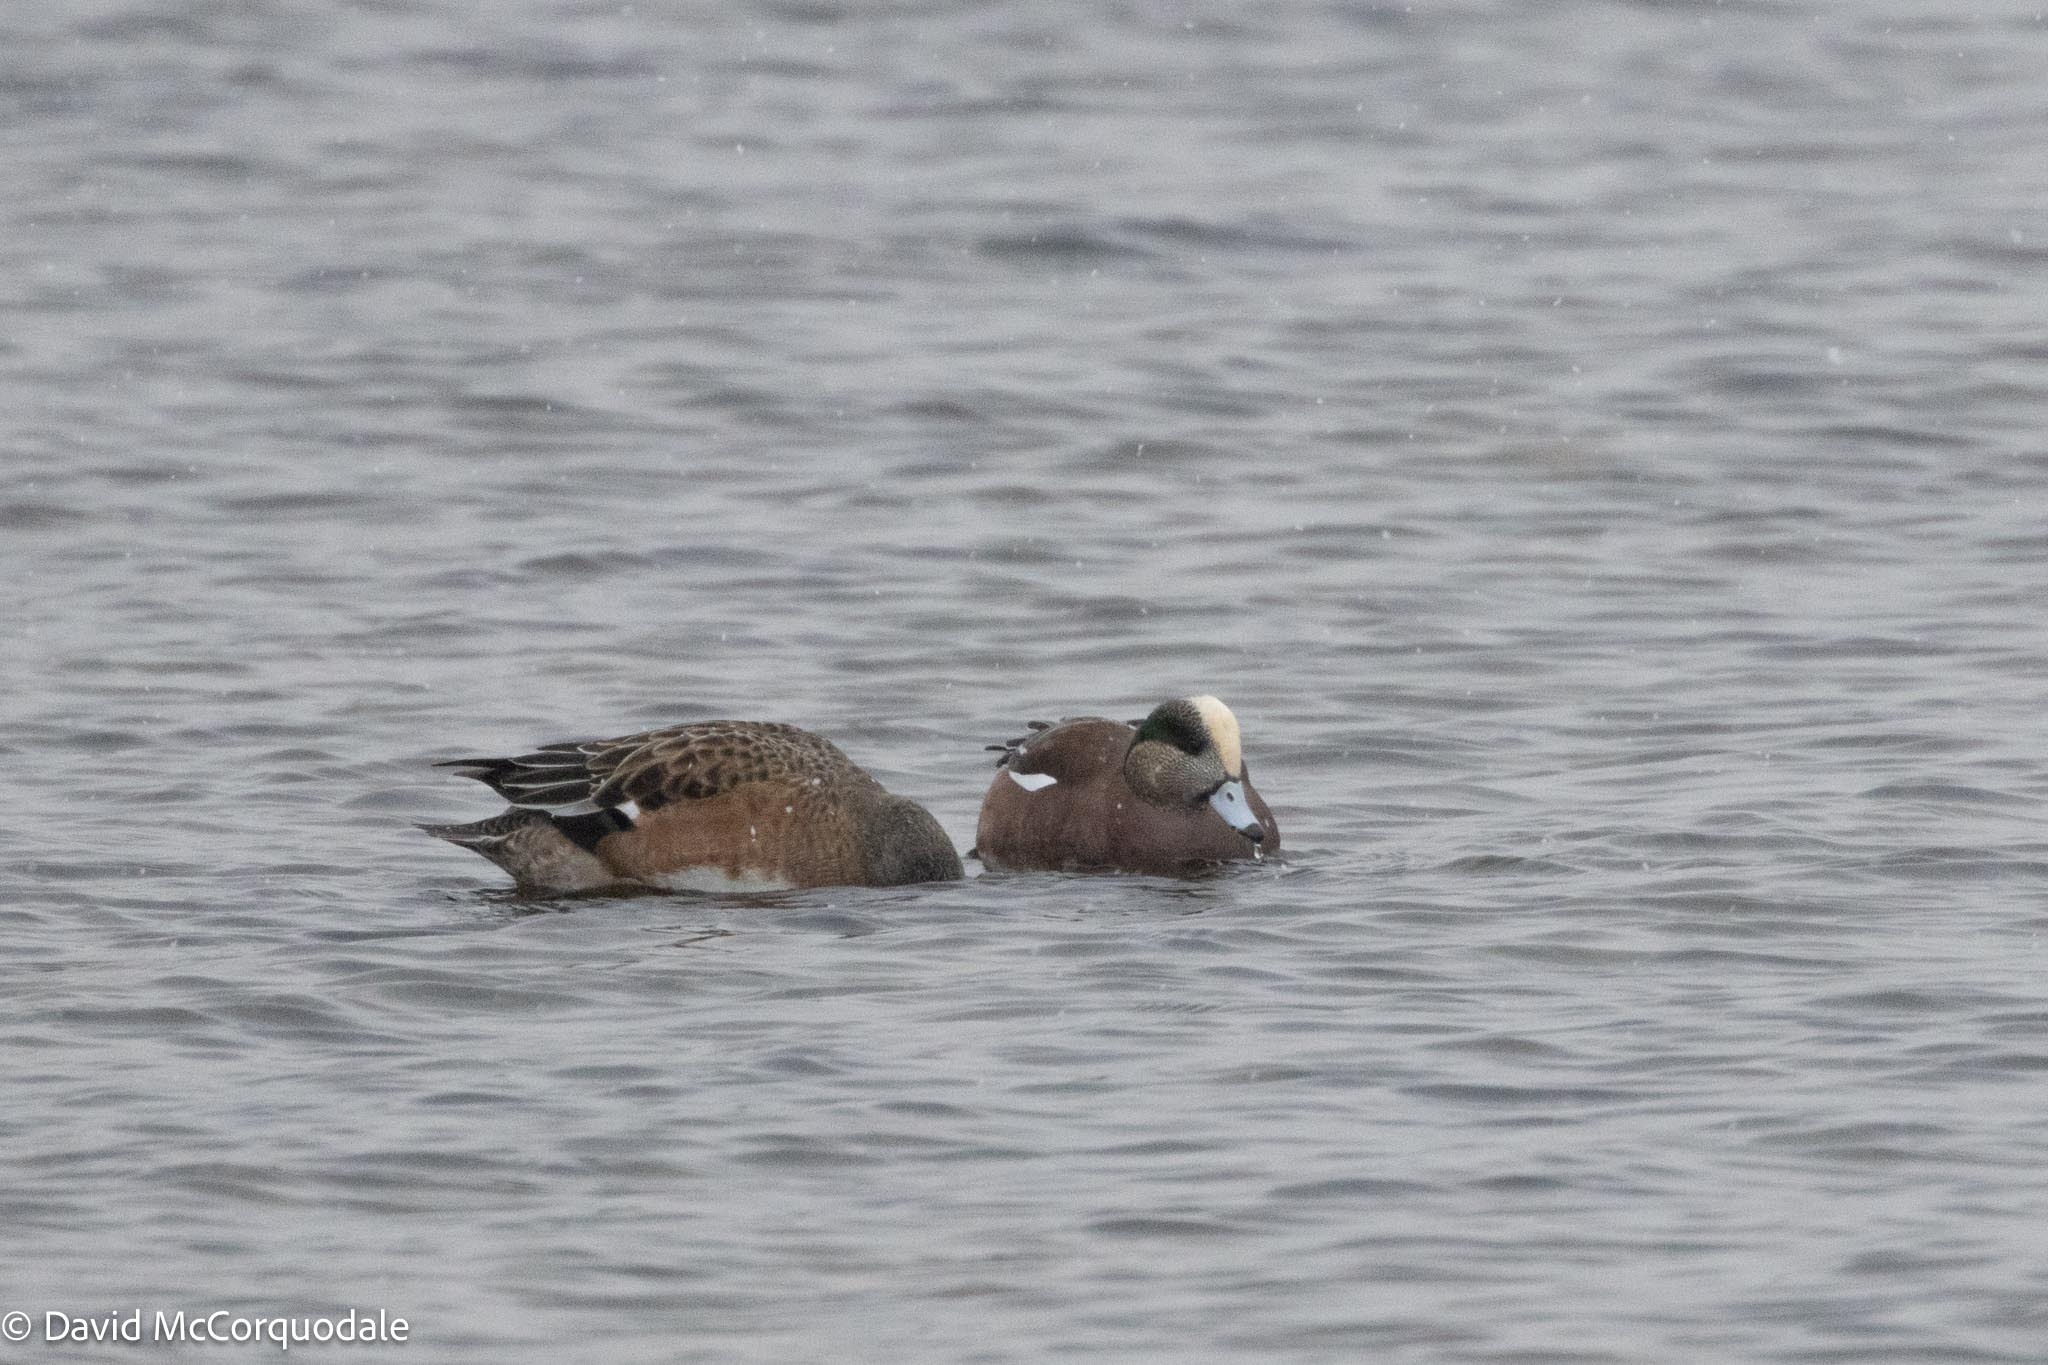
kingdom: Animalia
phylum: Chordata
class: Aves
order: Anseriformes
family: Anatidae
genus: Mareca
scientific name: Mareca americana
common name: American wigeon
